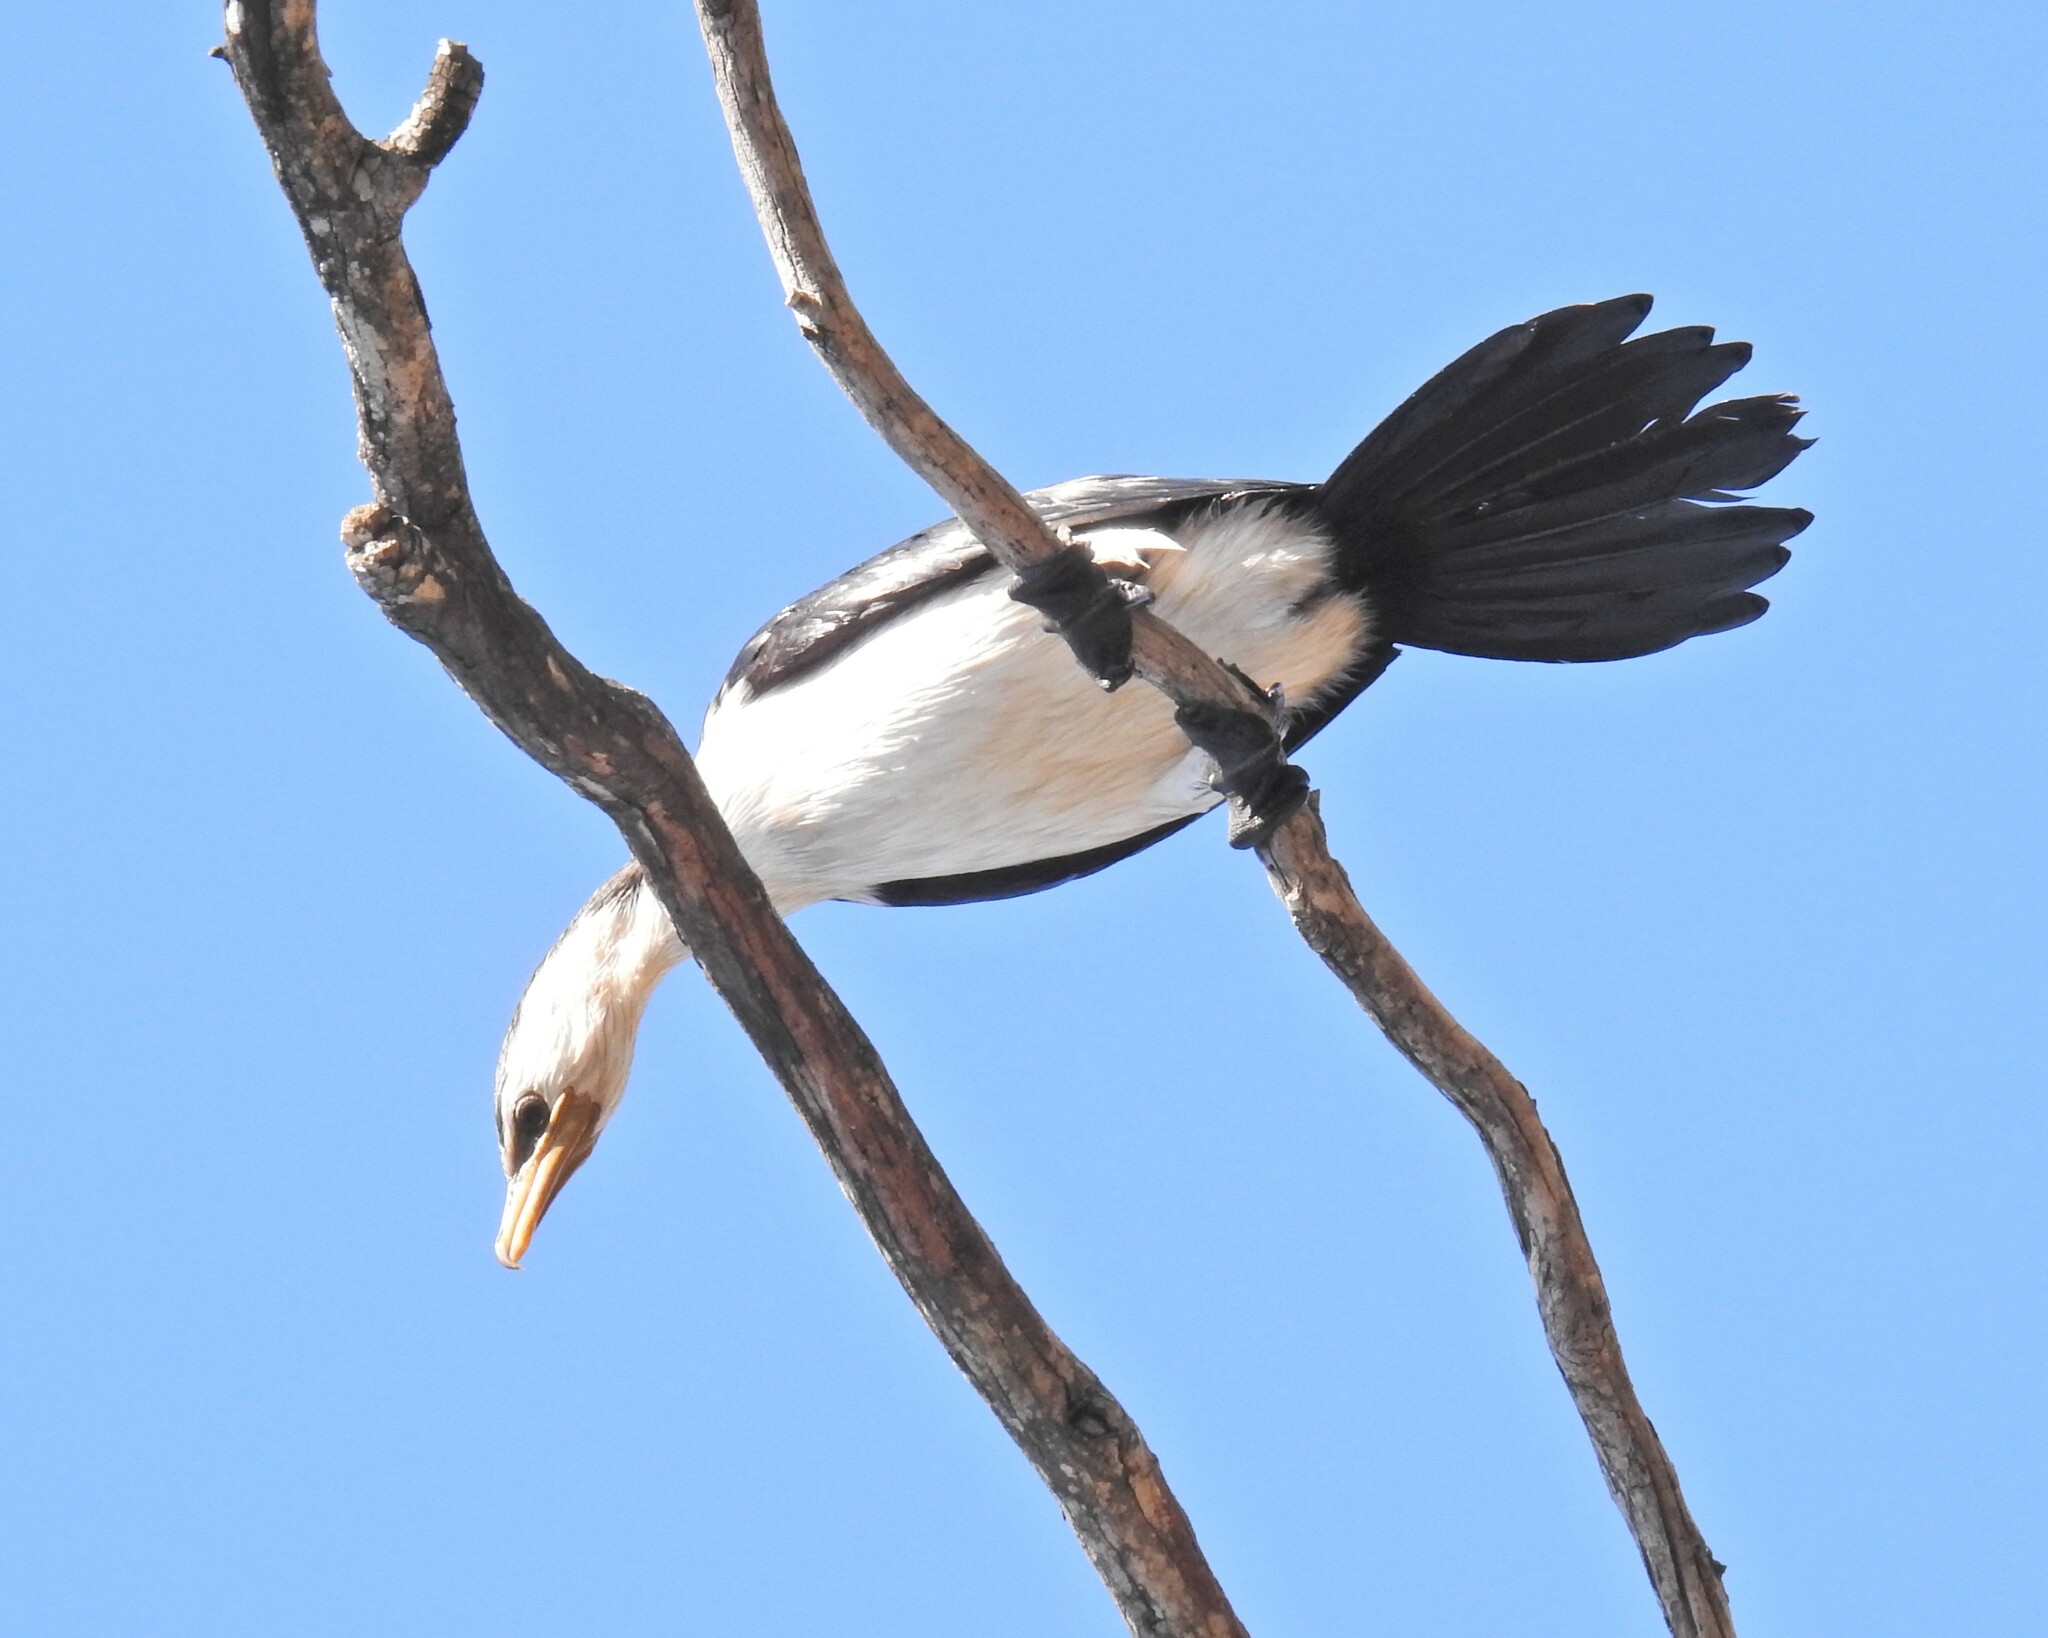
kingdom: Animalia
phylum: Chordata
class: Aves
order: Suliformes
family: Phalacrocoracidae
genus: Microcarbo
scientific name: Microcarbo melanoleucos
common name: Little pied cormorant
